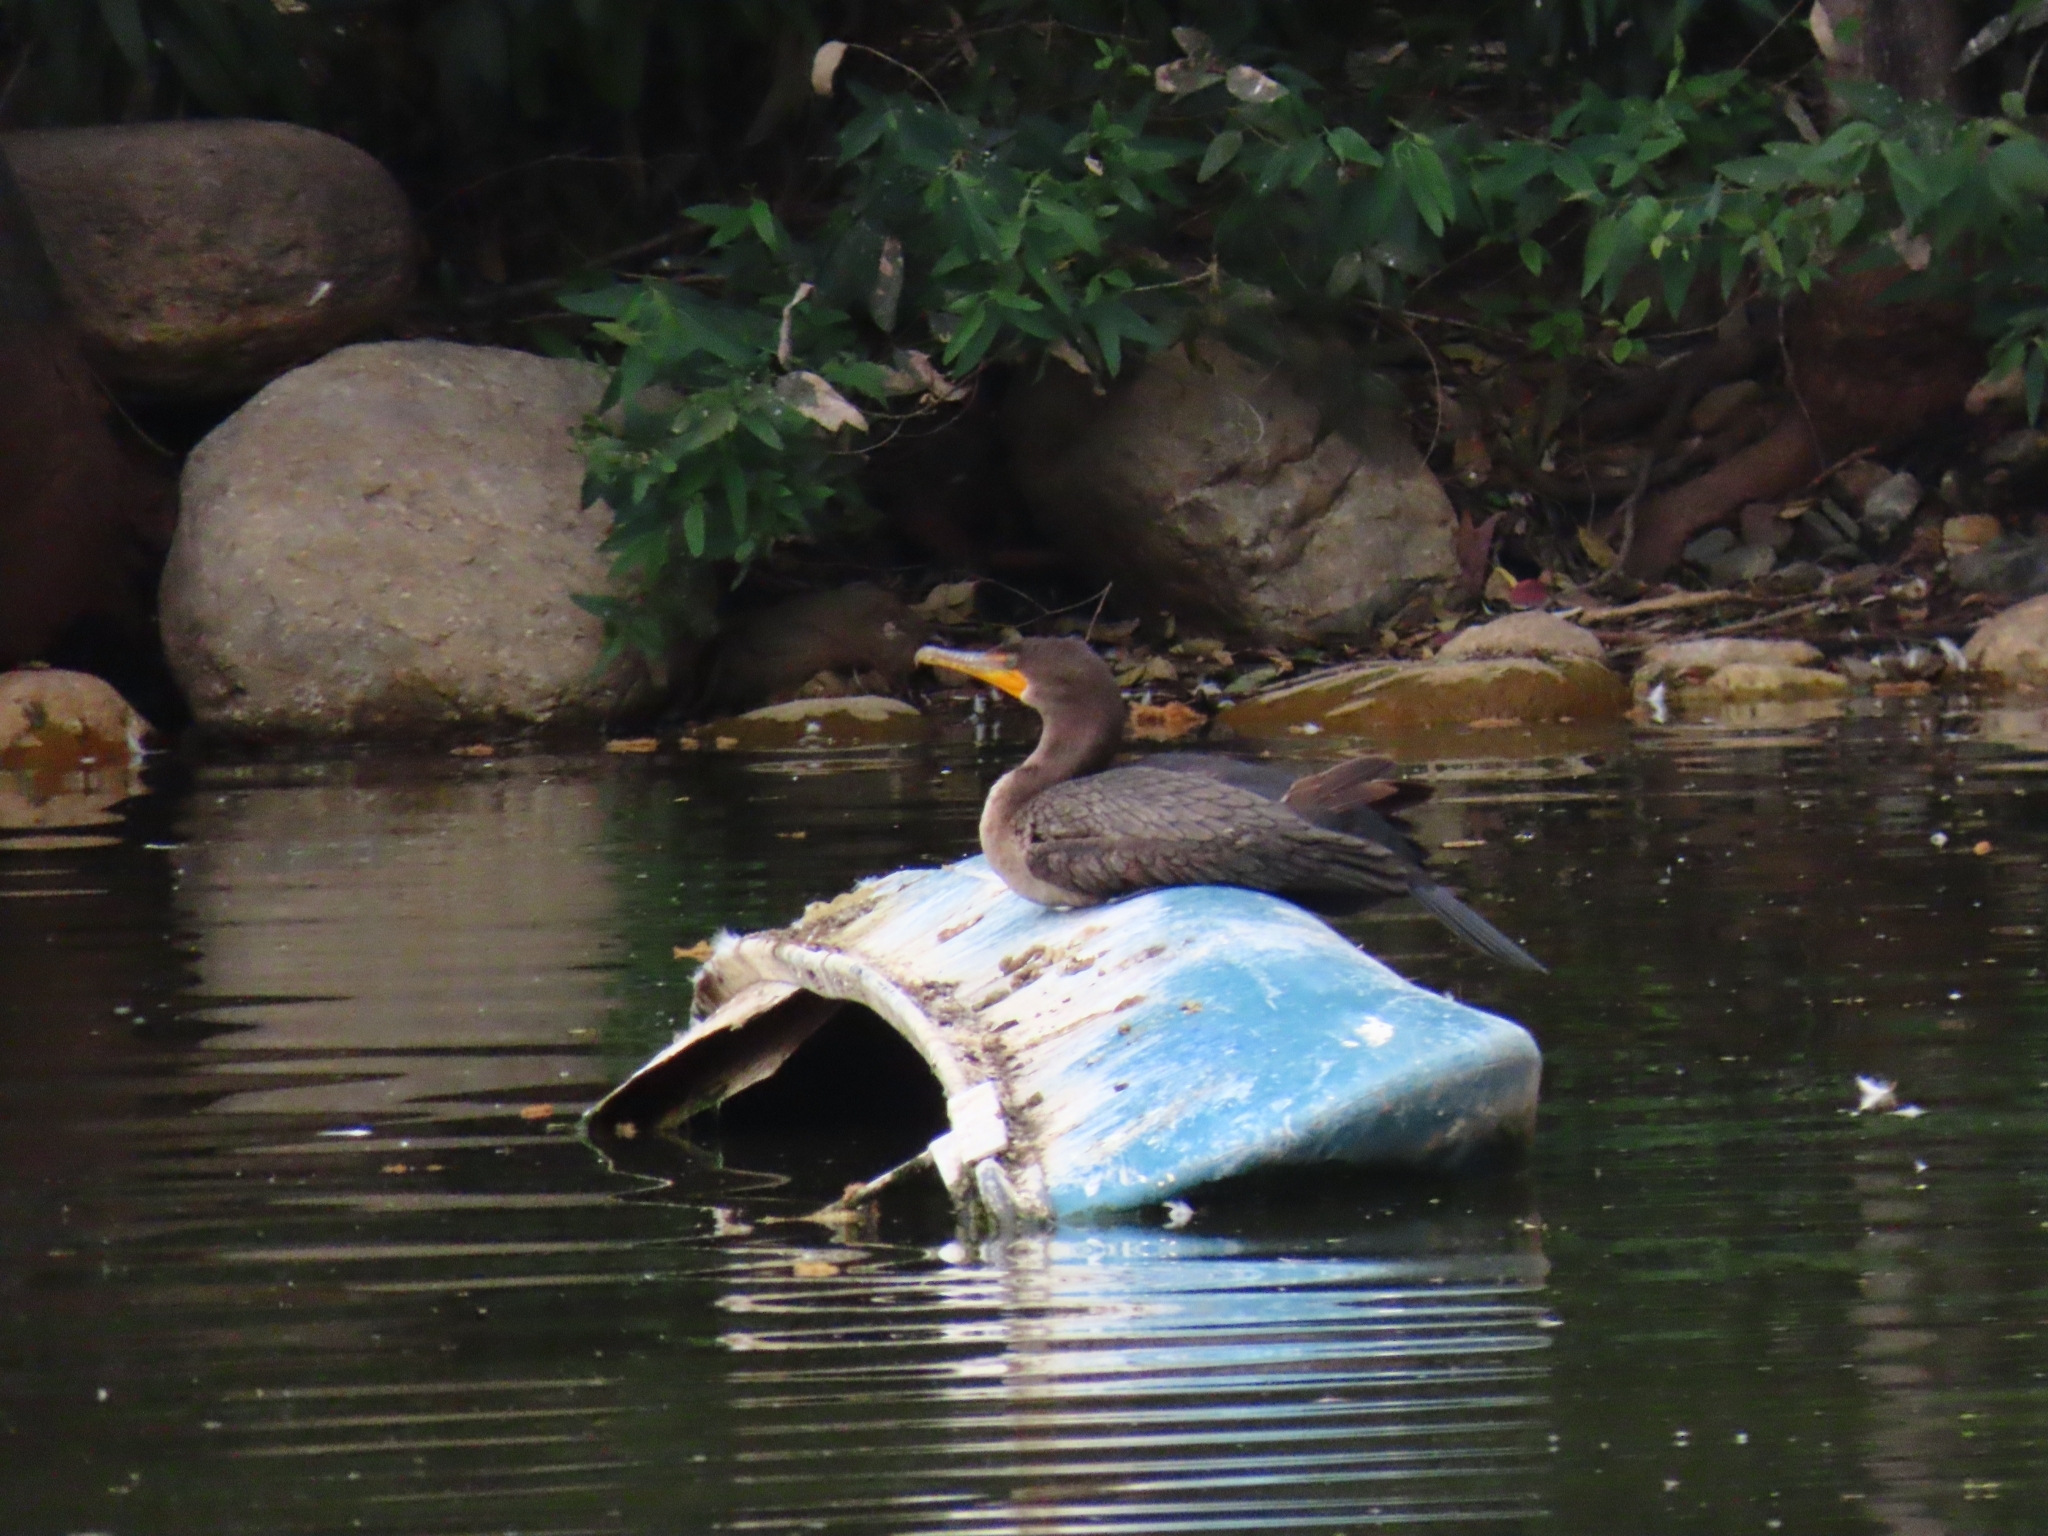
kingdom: Animalia
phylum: Chordata
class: Aves
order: Suliformes
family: Phalacrocoracidae
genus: Phalacrocorax
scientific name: Phalacrocorax auritus
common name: Double-crested cormorant
